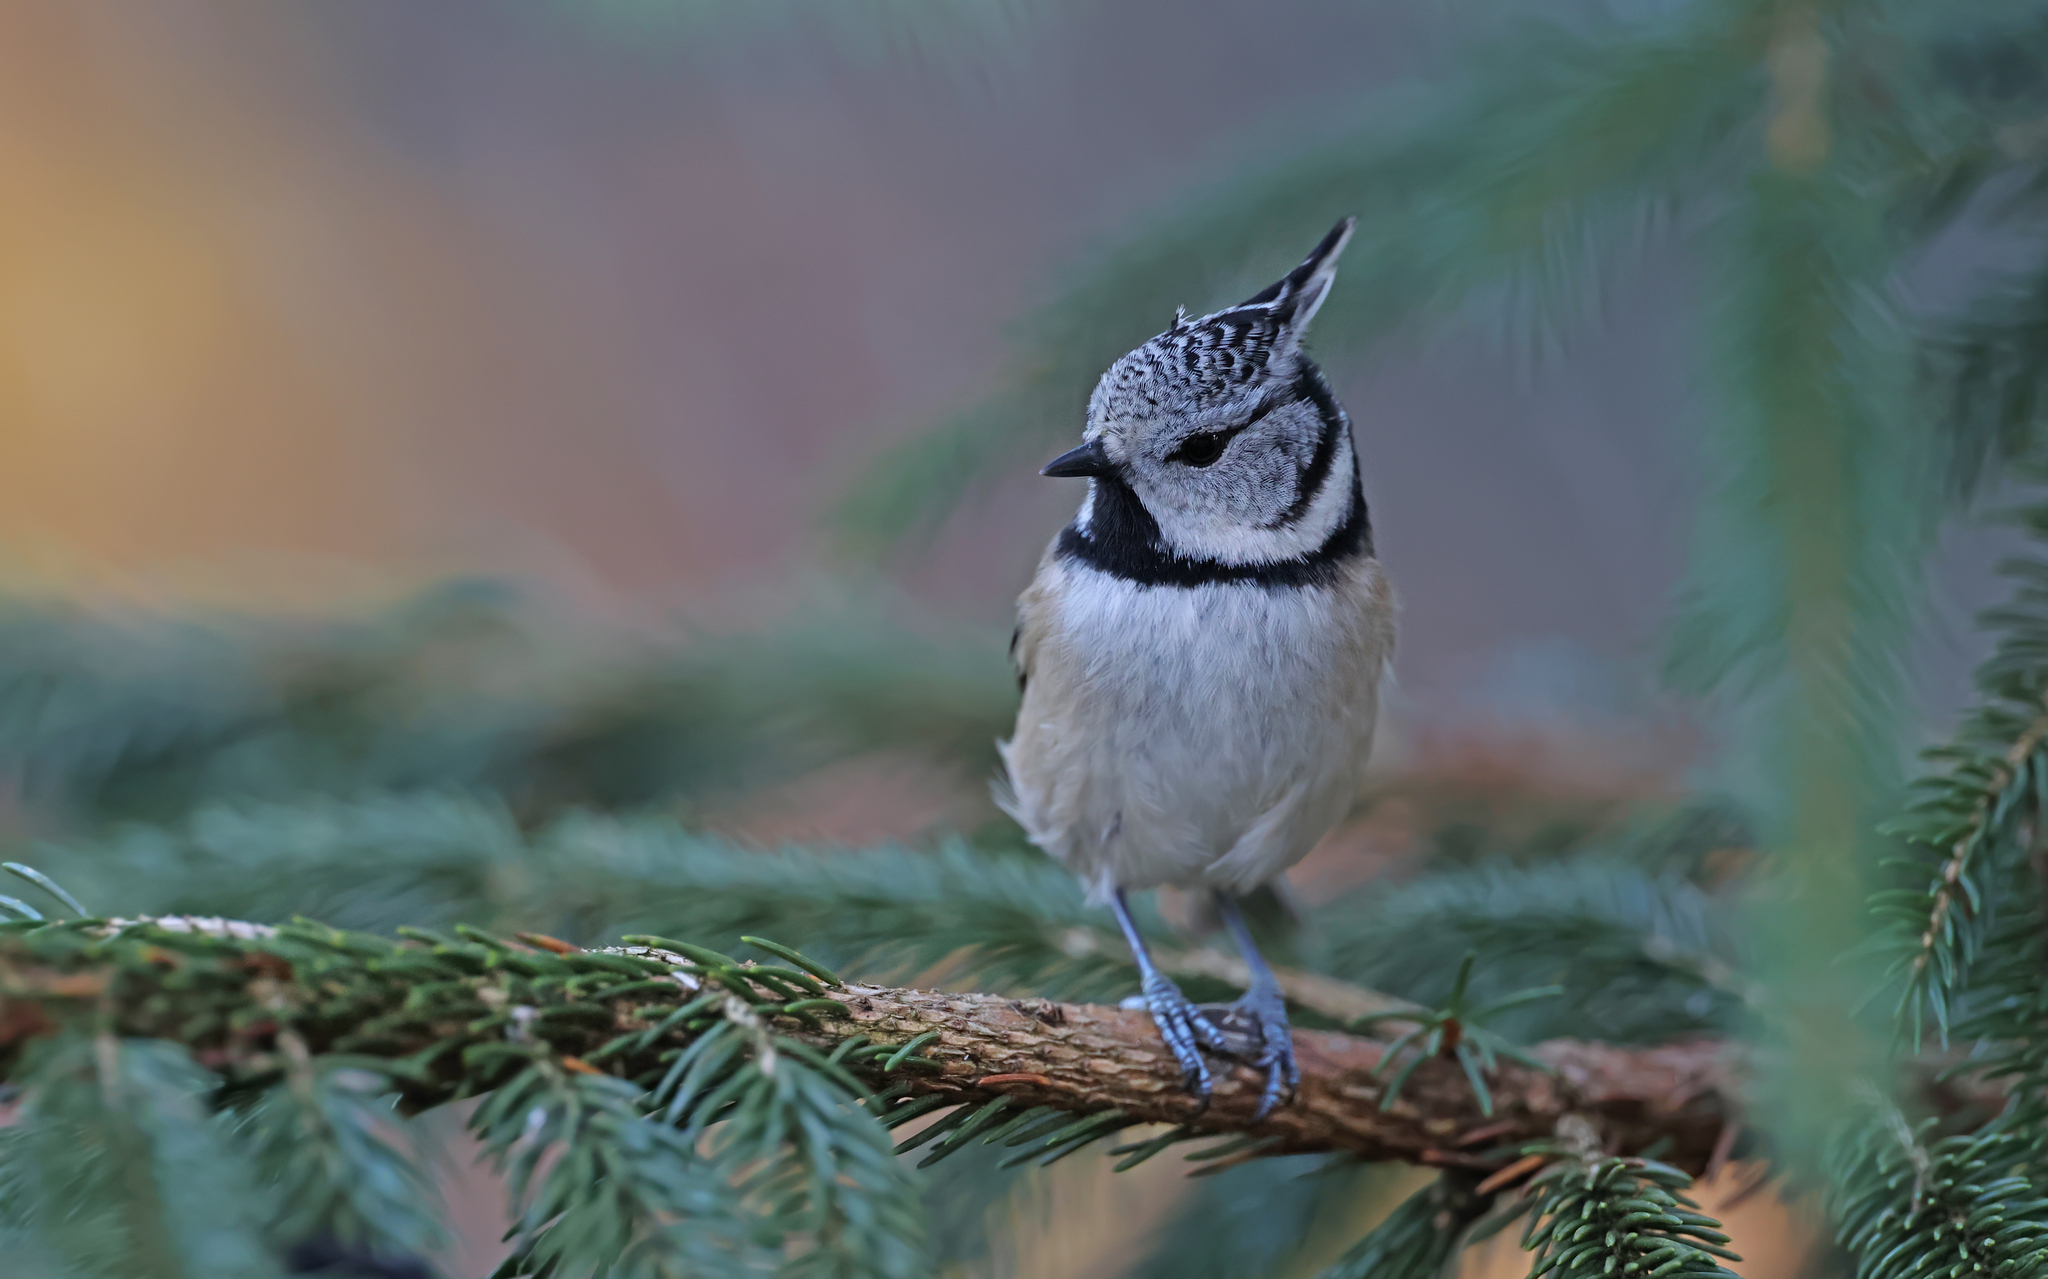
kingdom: Animalia
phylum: Chordata
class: Aves
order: Passeriformes
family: Paridae
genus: Lophophanes
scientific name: Lophophanes cristatus
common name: European crested tit
